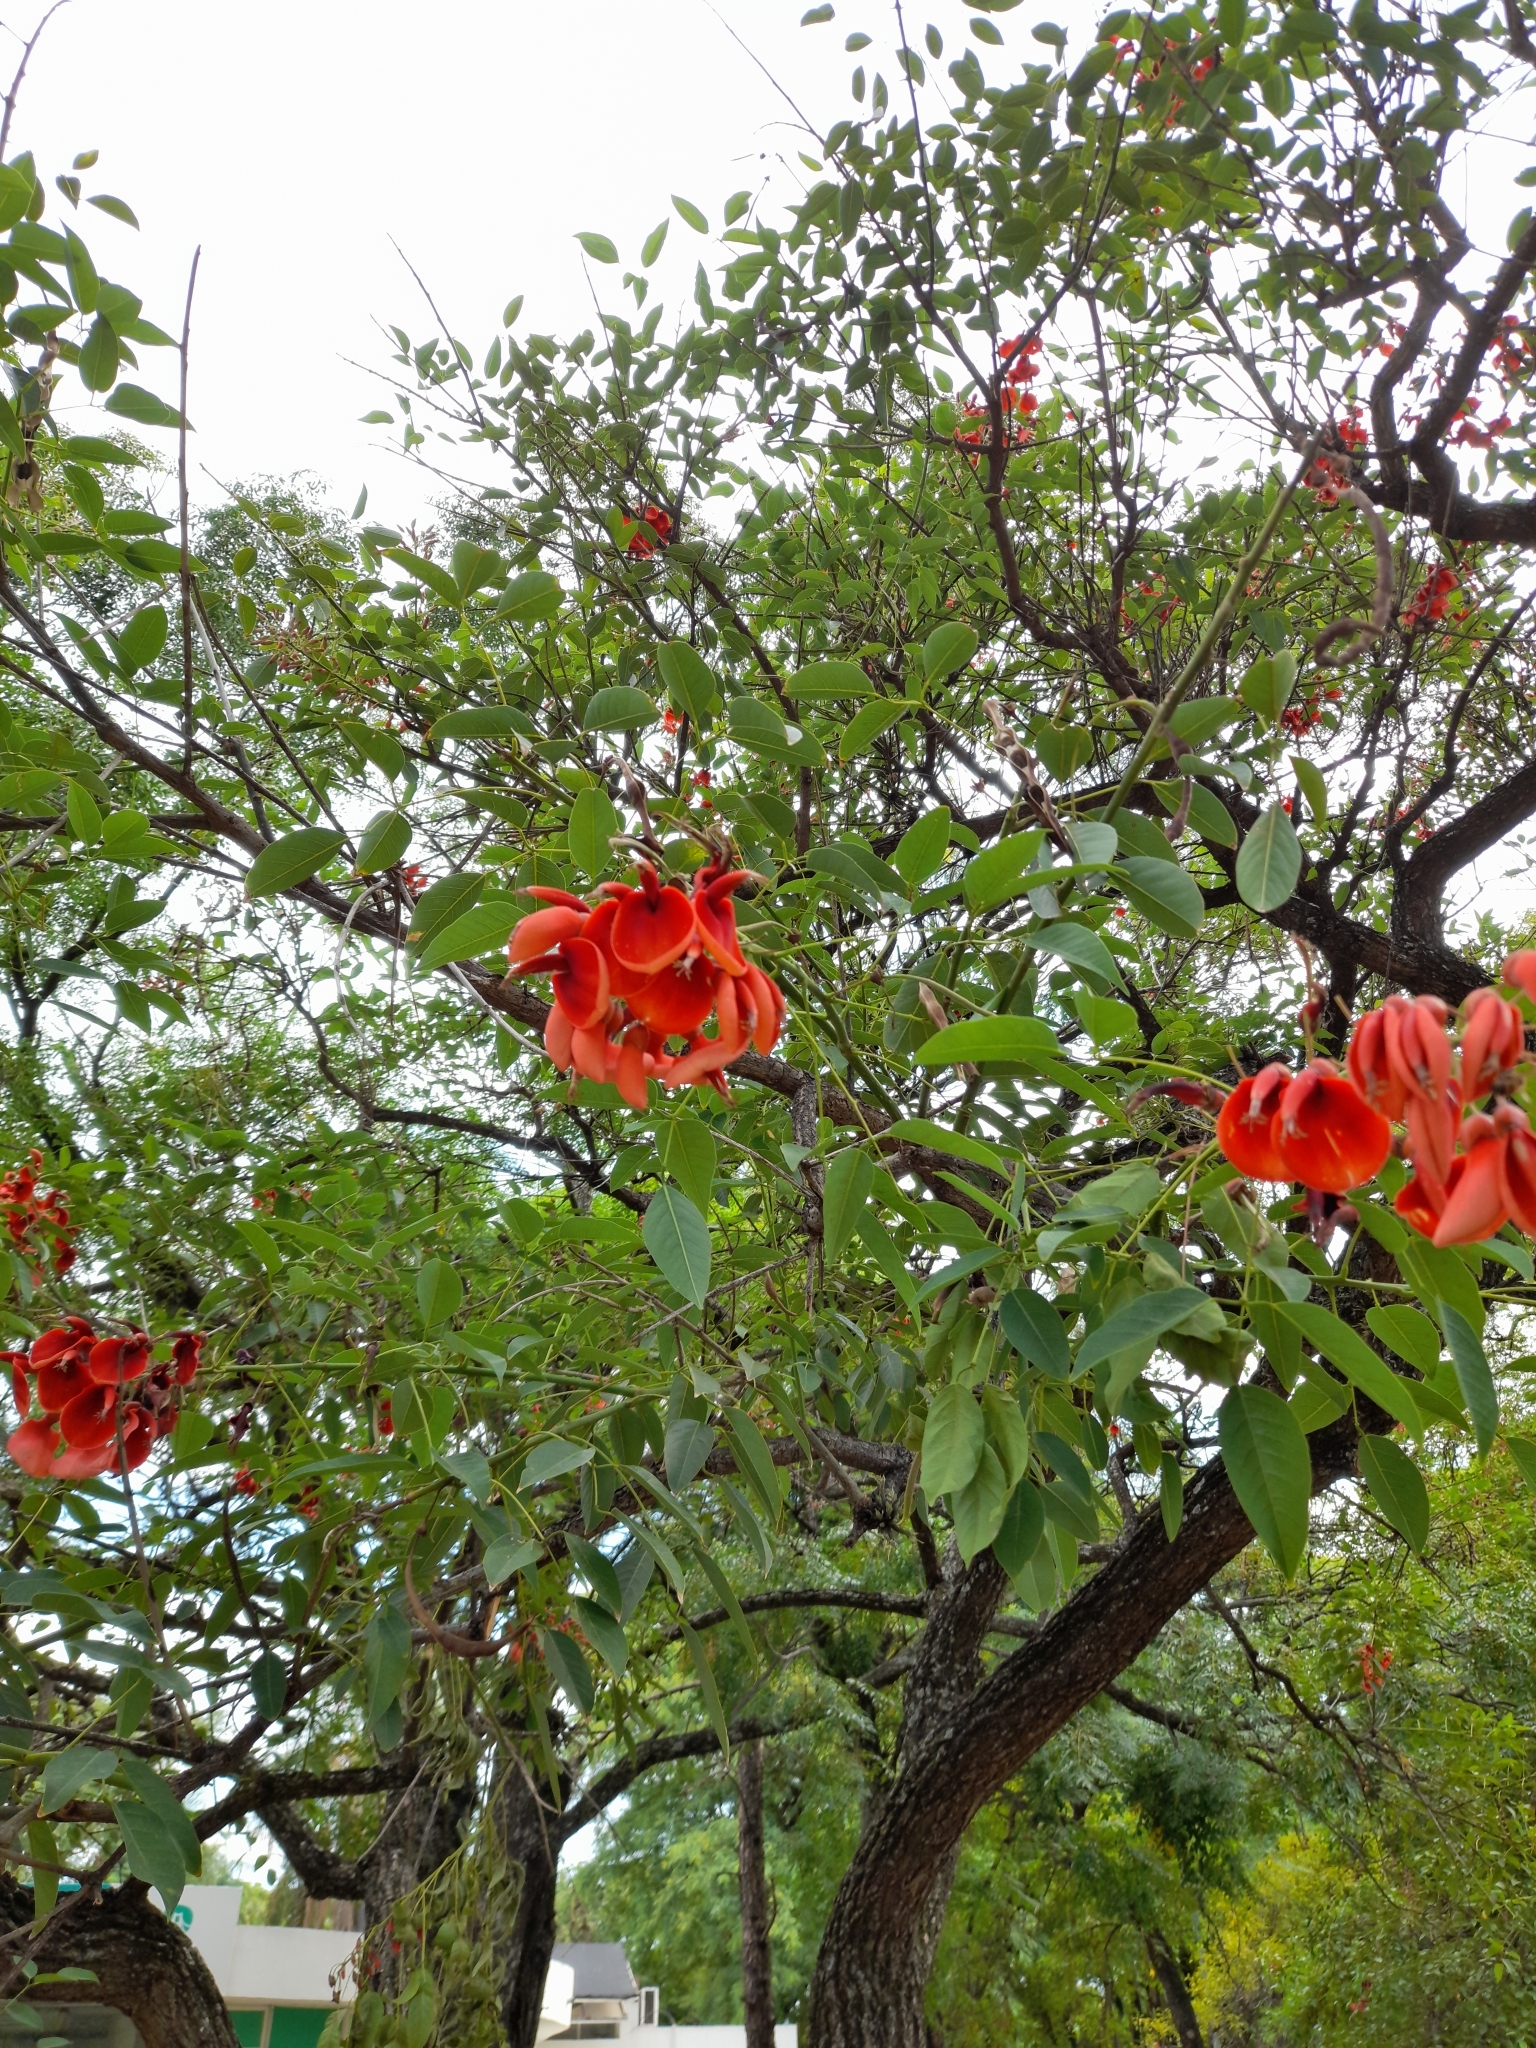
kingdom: Plantae
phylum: Tracheophyta
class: Magnoliopsida
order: Fabales
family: Fabaceae
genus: Erythrina
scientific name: Erythrina crista-galli
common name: Cockspur coral tree
